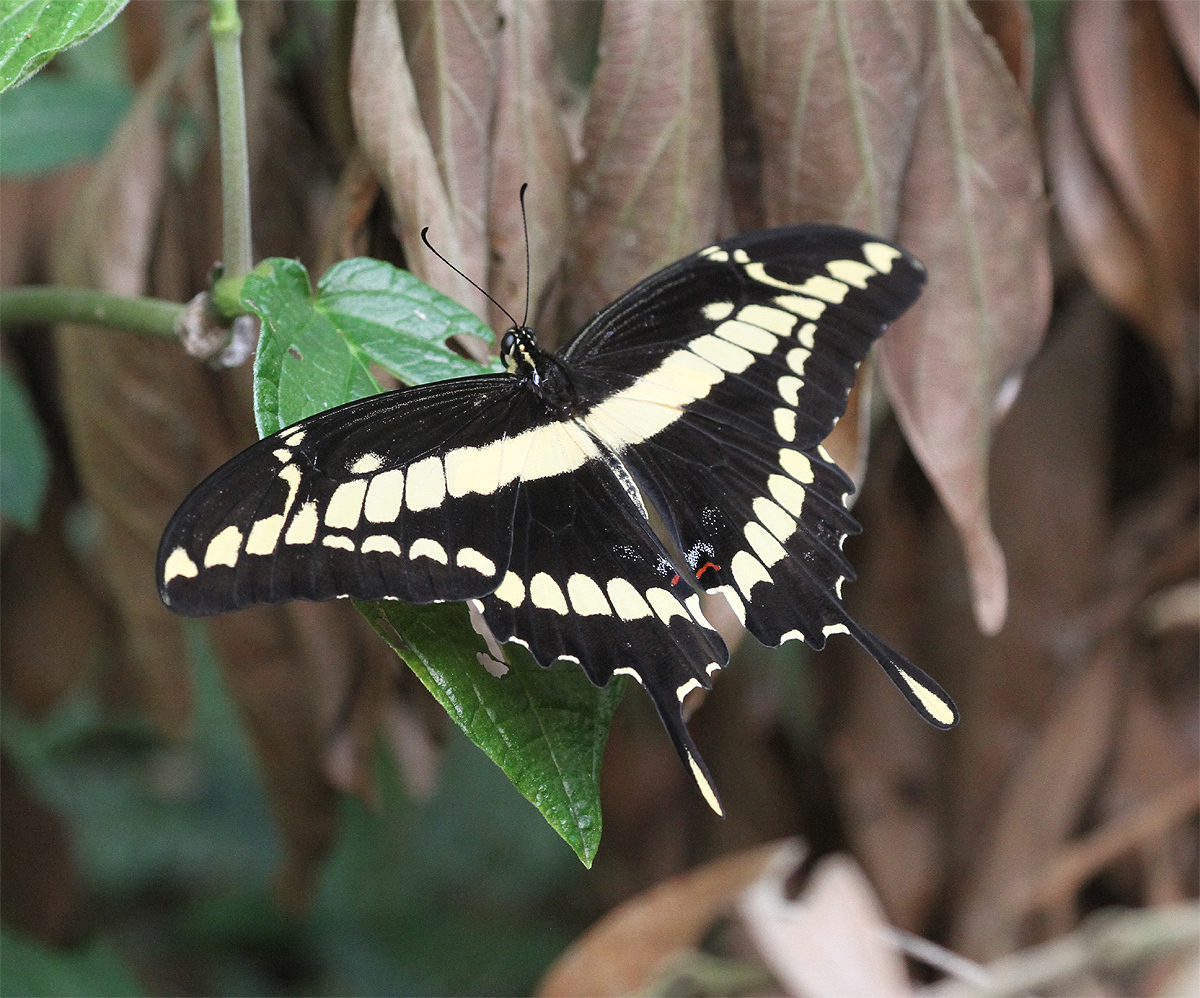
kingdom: Animalia
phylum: Arthropoda
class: Insecta
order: Lepidoptera
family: Papilionidae
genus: Papilio
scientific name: Papilio thoas
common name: King swallowtail
